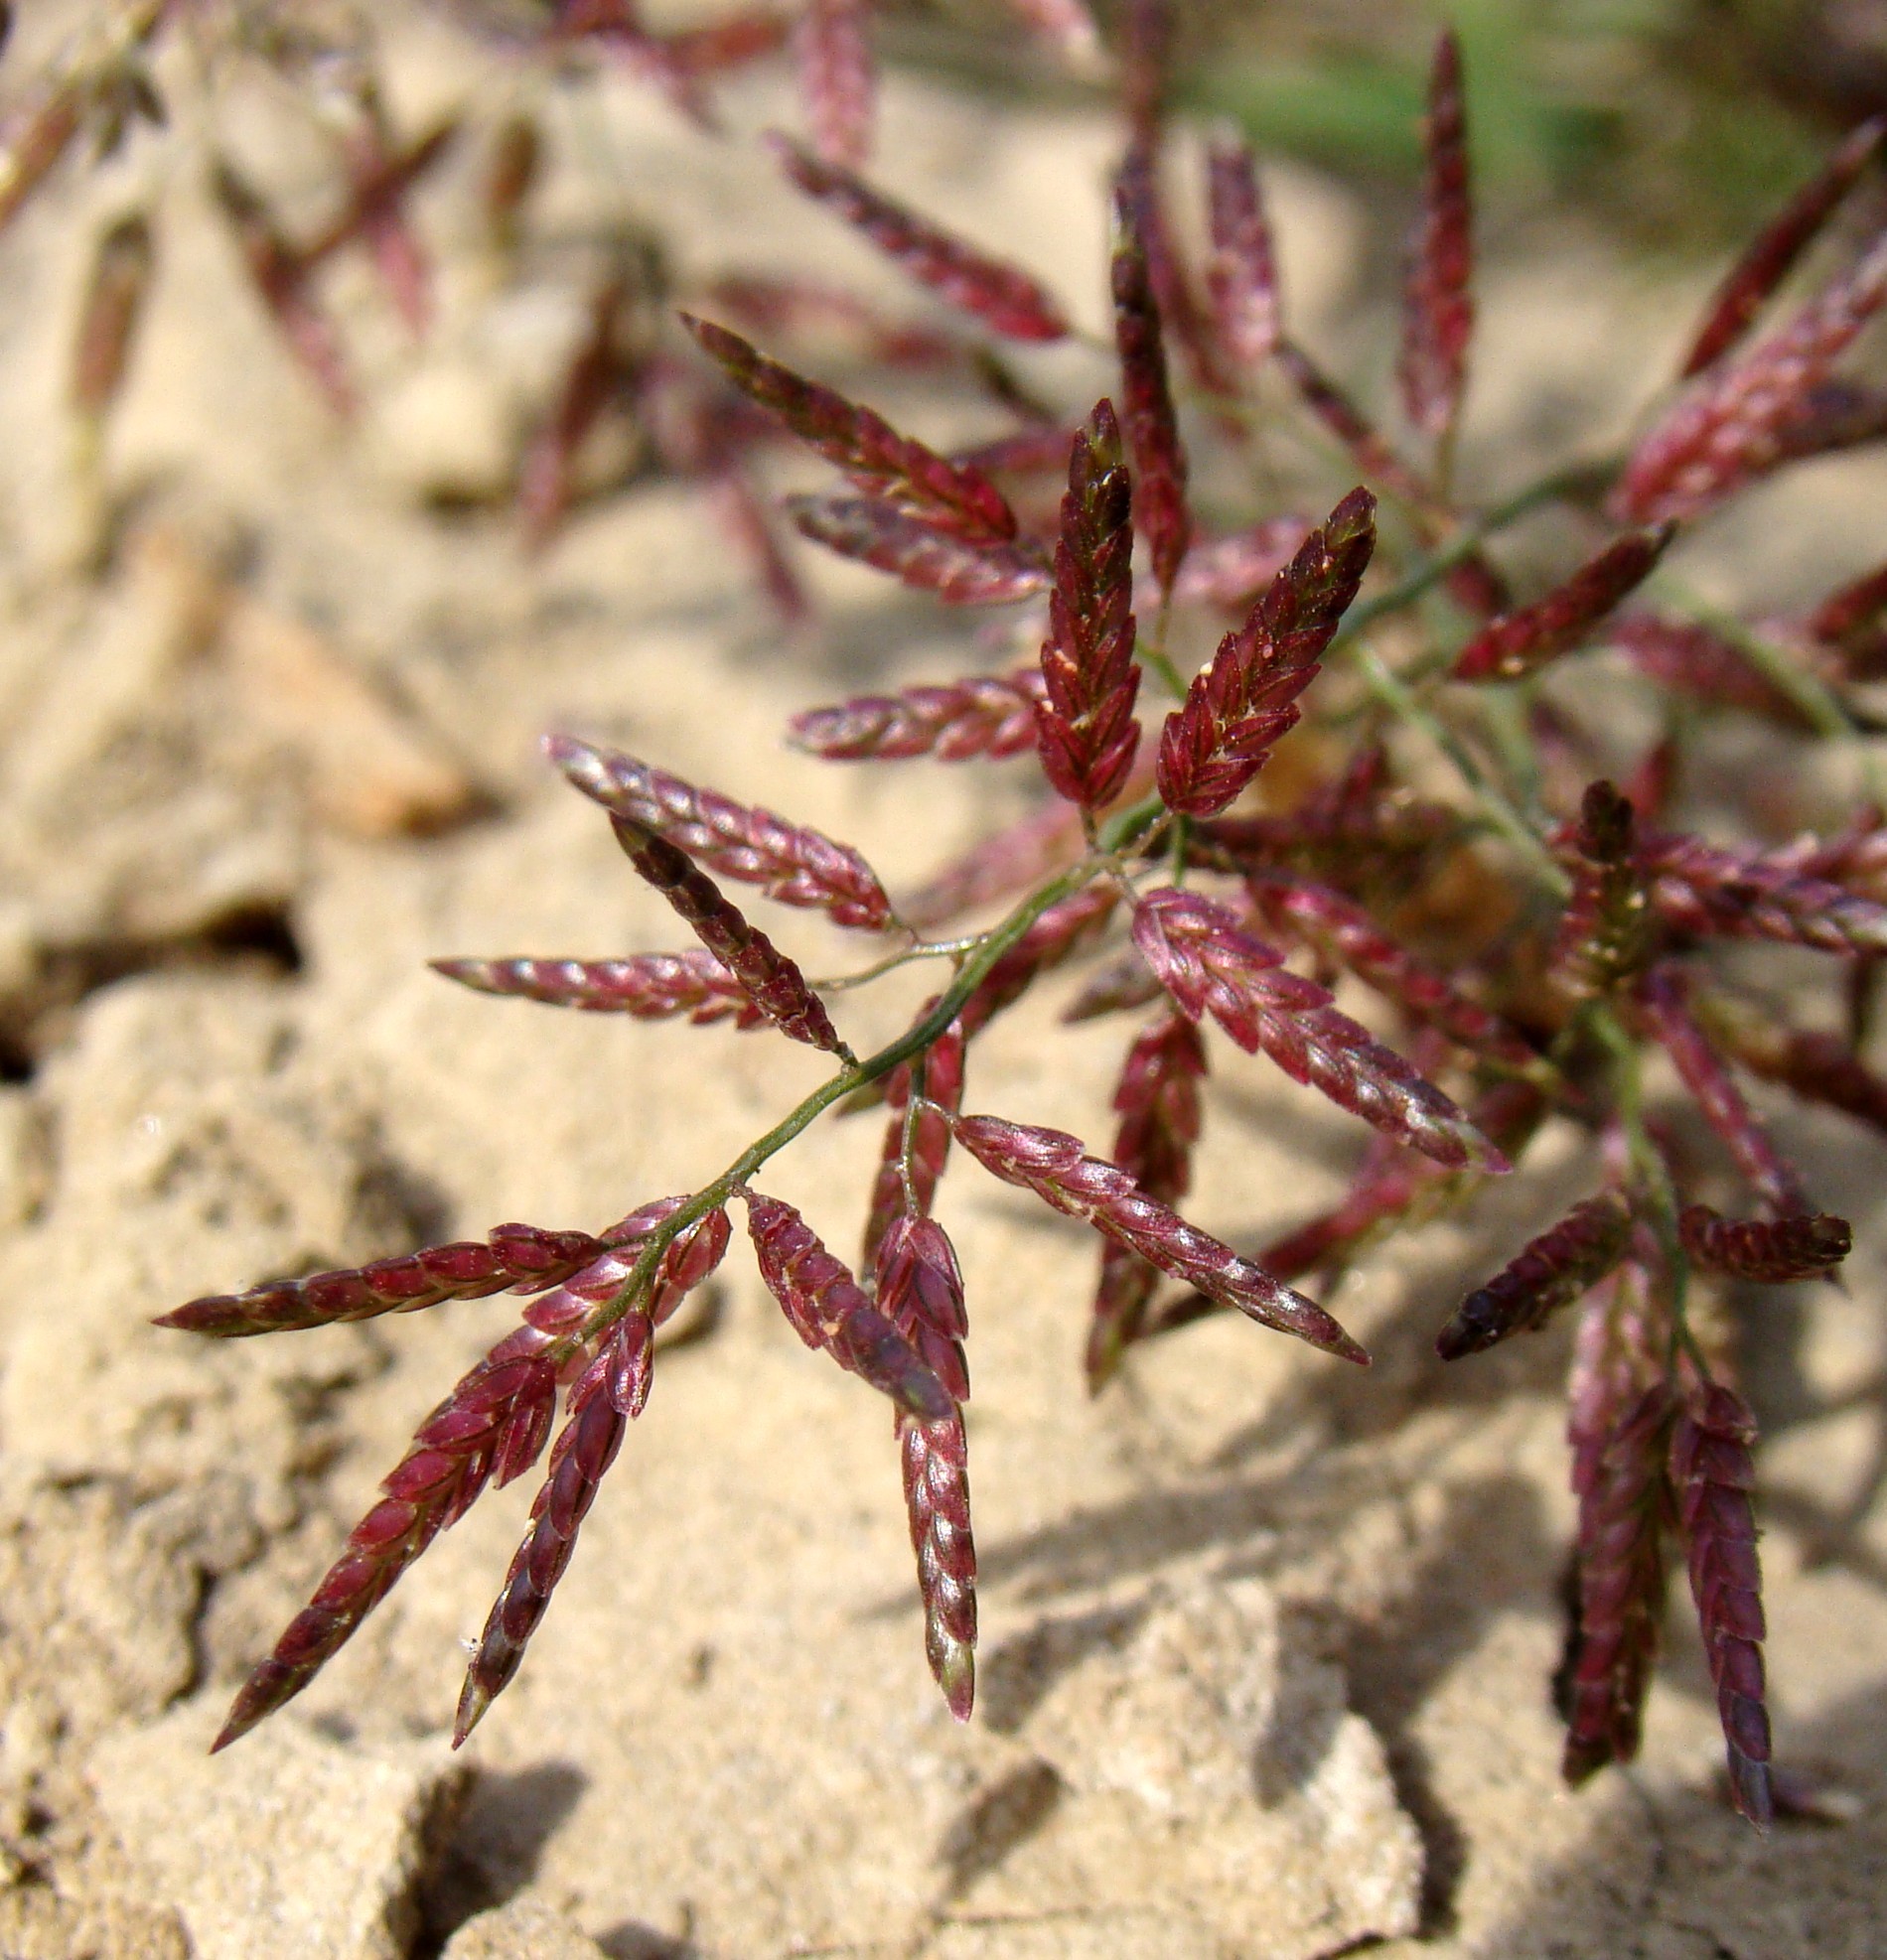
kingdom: Plantae
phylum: Tracheophyta
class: Liliopsida
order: Poales
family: Poaceae
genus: Eragrostis
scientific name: Eragrostis minor
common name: Small love-grass
